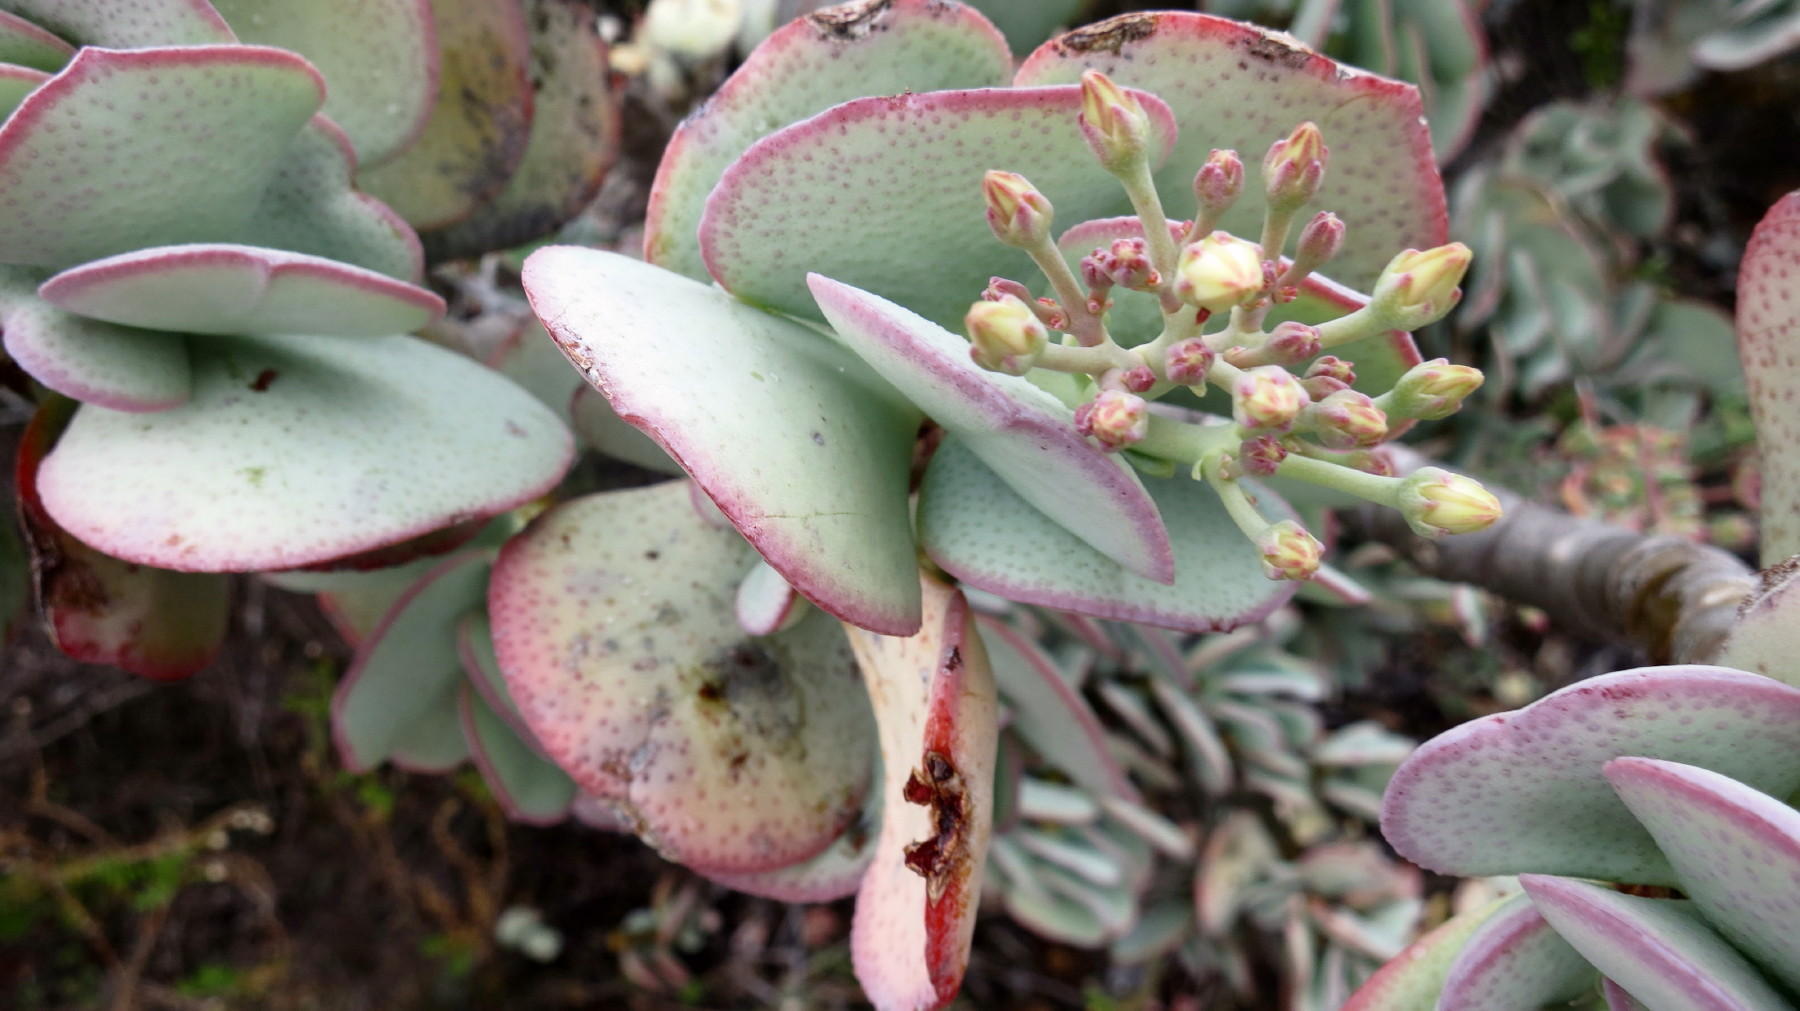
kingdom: Plantae
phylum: Tracheophyta
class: Magnoliopsida
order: Saxifragales
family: Crassulaceae
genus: Crassula
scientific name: Crassula arborescens
